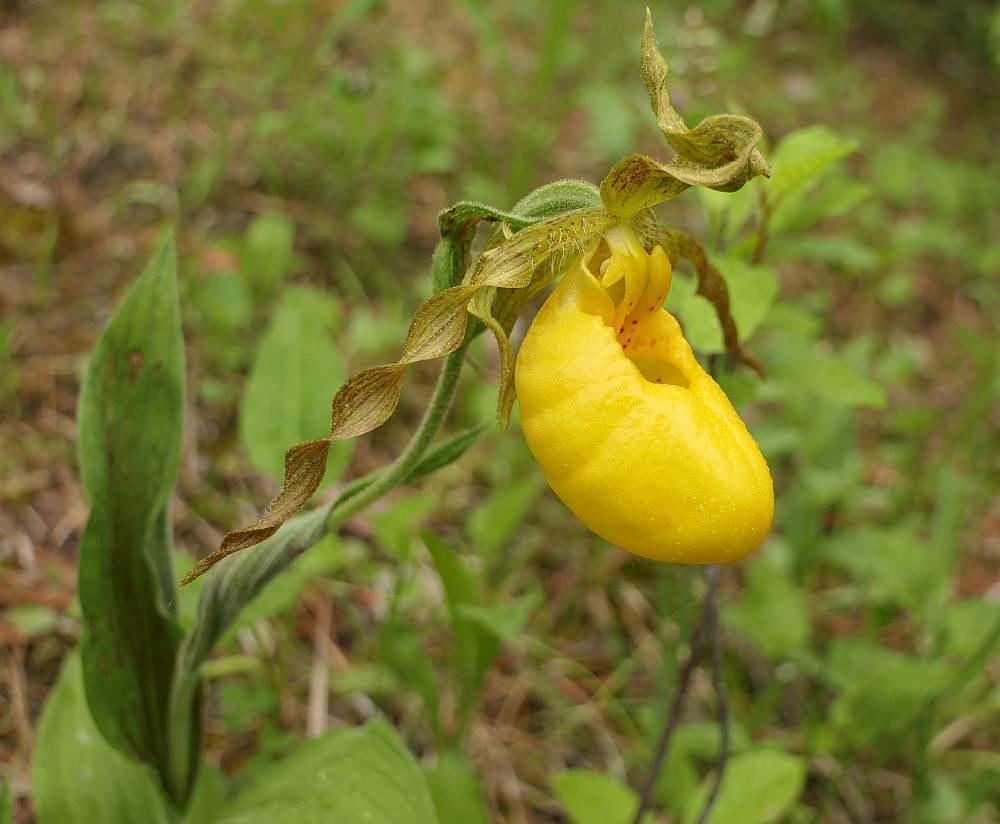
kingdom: Plantae
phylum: Tracheophyta
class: Liliopsida
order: Asparagales
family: Orchidaceae
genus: Cypripedium
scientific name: Cypripedium parviflorum
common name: American yellow lady's-slipper
